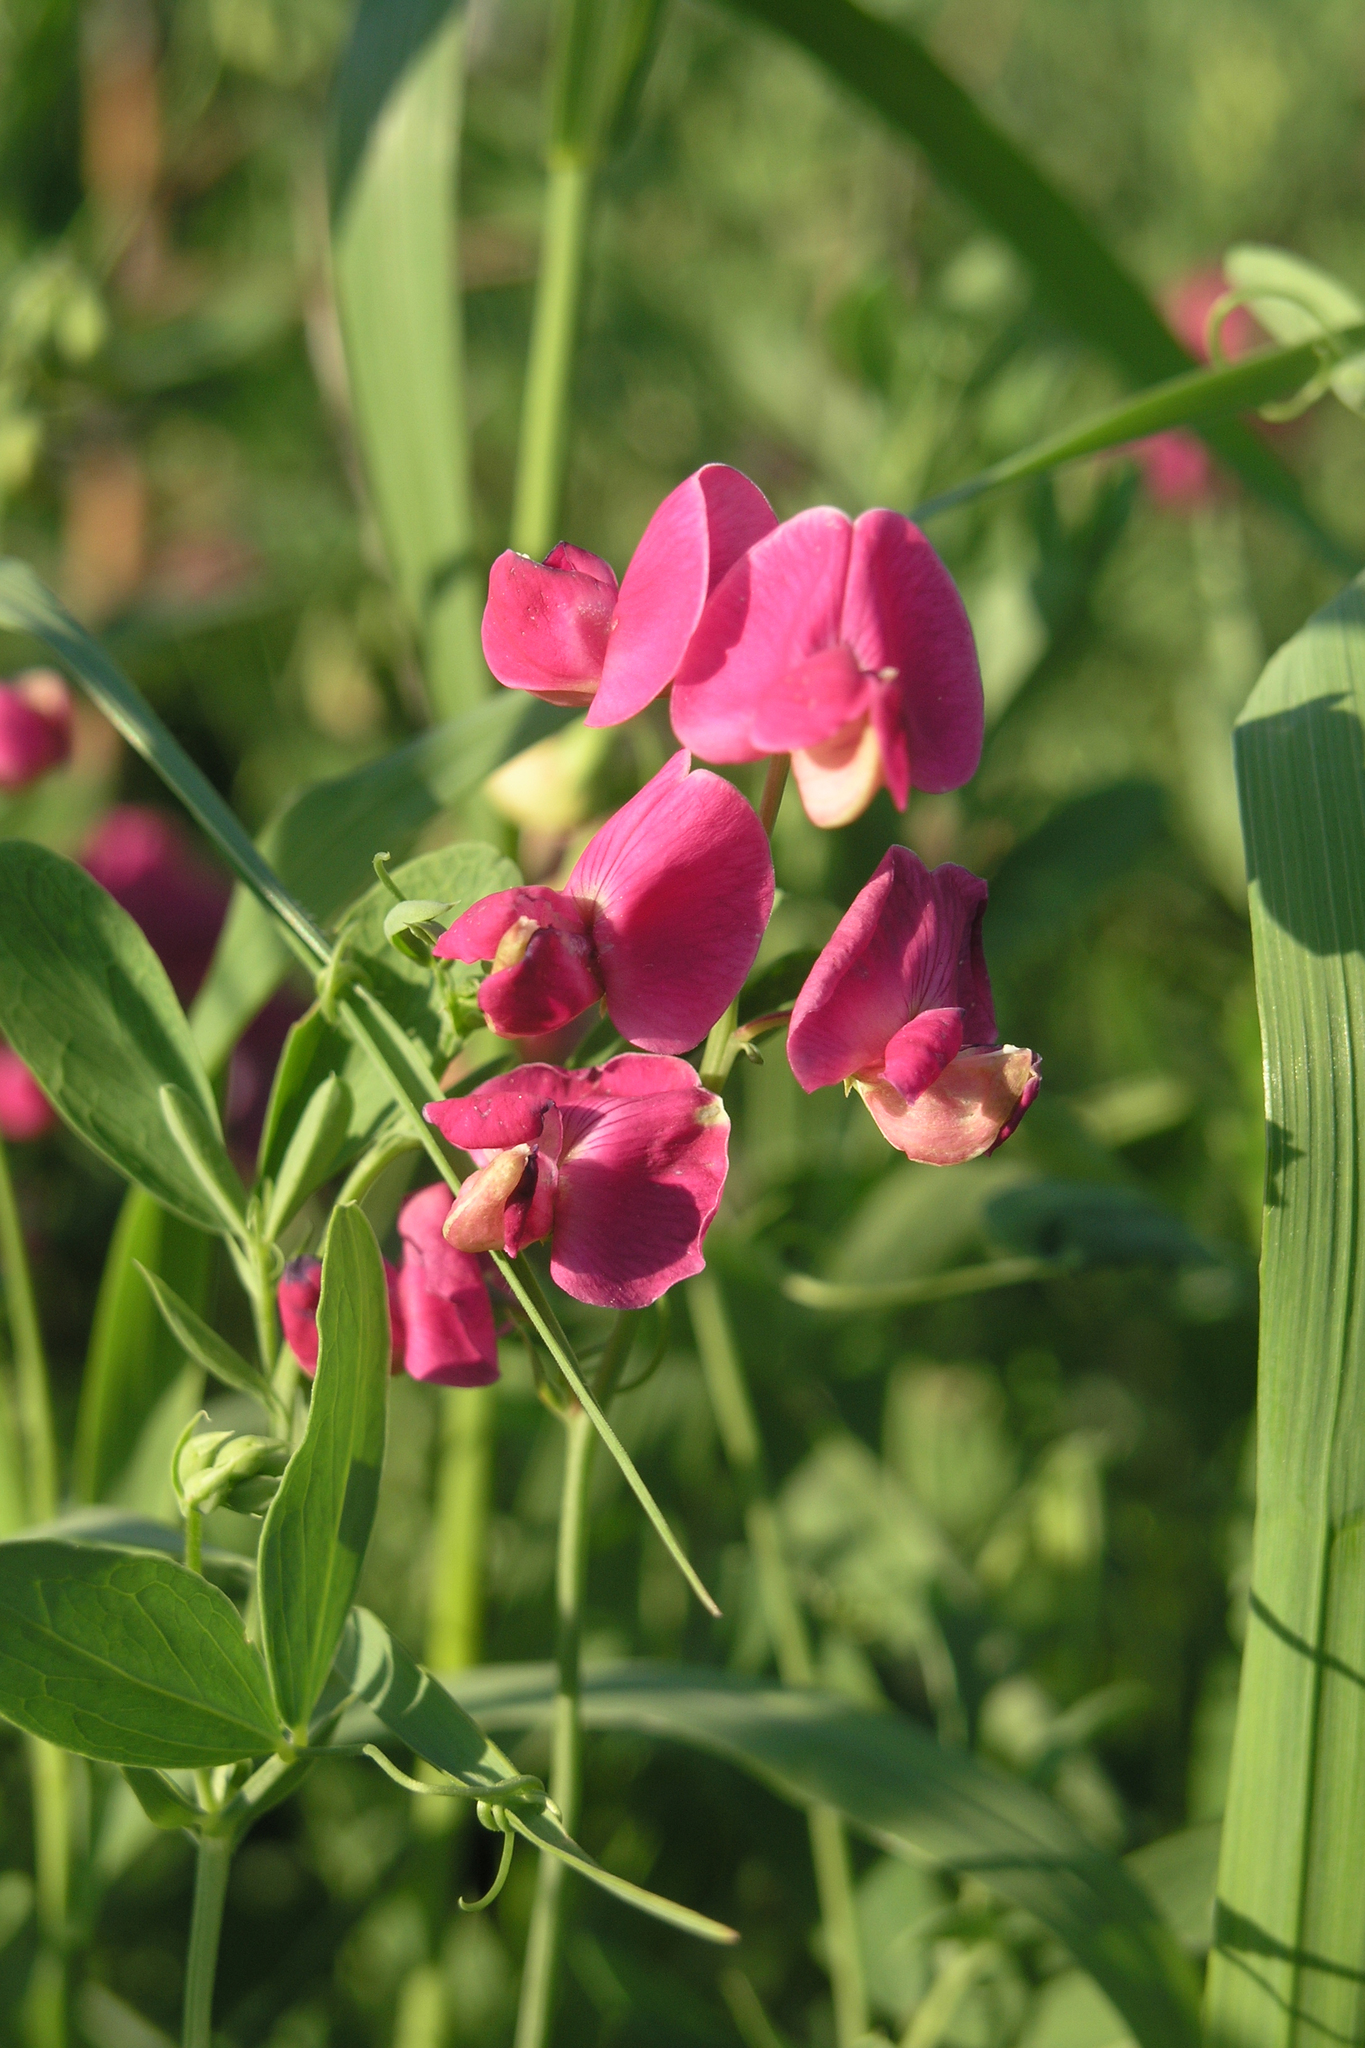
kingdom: Plantae
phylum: Tracheophyta
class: Magnoliopsida
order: Fabales
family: Fabaceae
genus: Lathyrus
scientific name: Lathyrus tuberosus
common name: Tuberous pea
